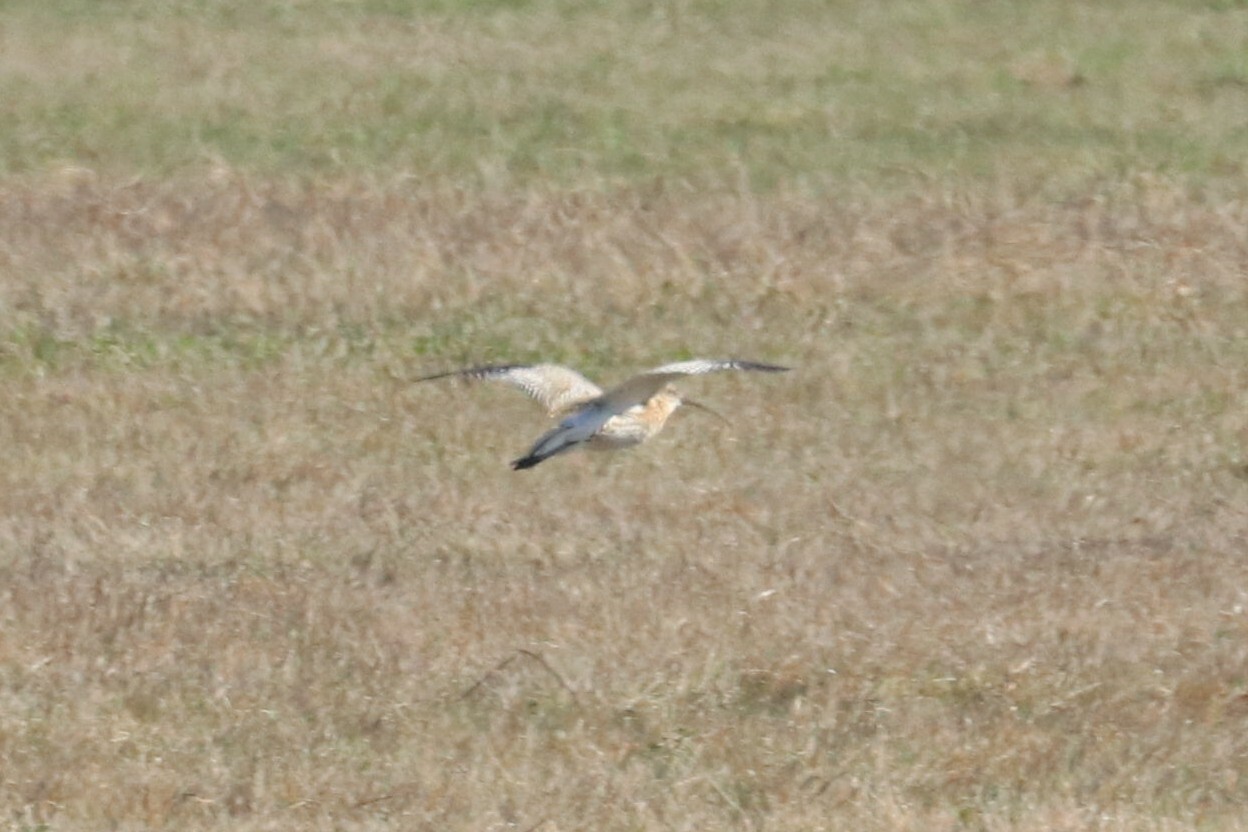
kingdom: Animalia
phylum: Chordata
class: Aves
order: Charadriiformes
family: Scolopacidae
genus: Numenius
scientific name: Numenius arquata
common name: Eurasian curlew
